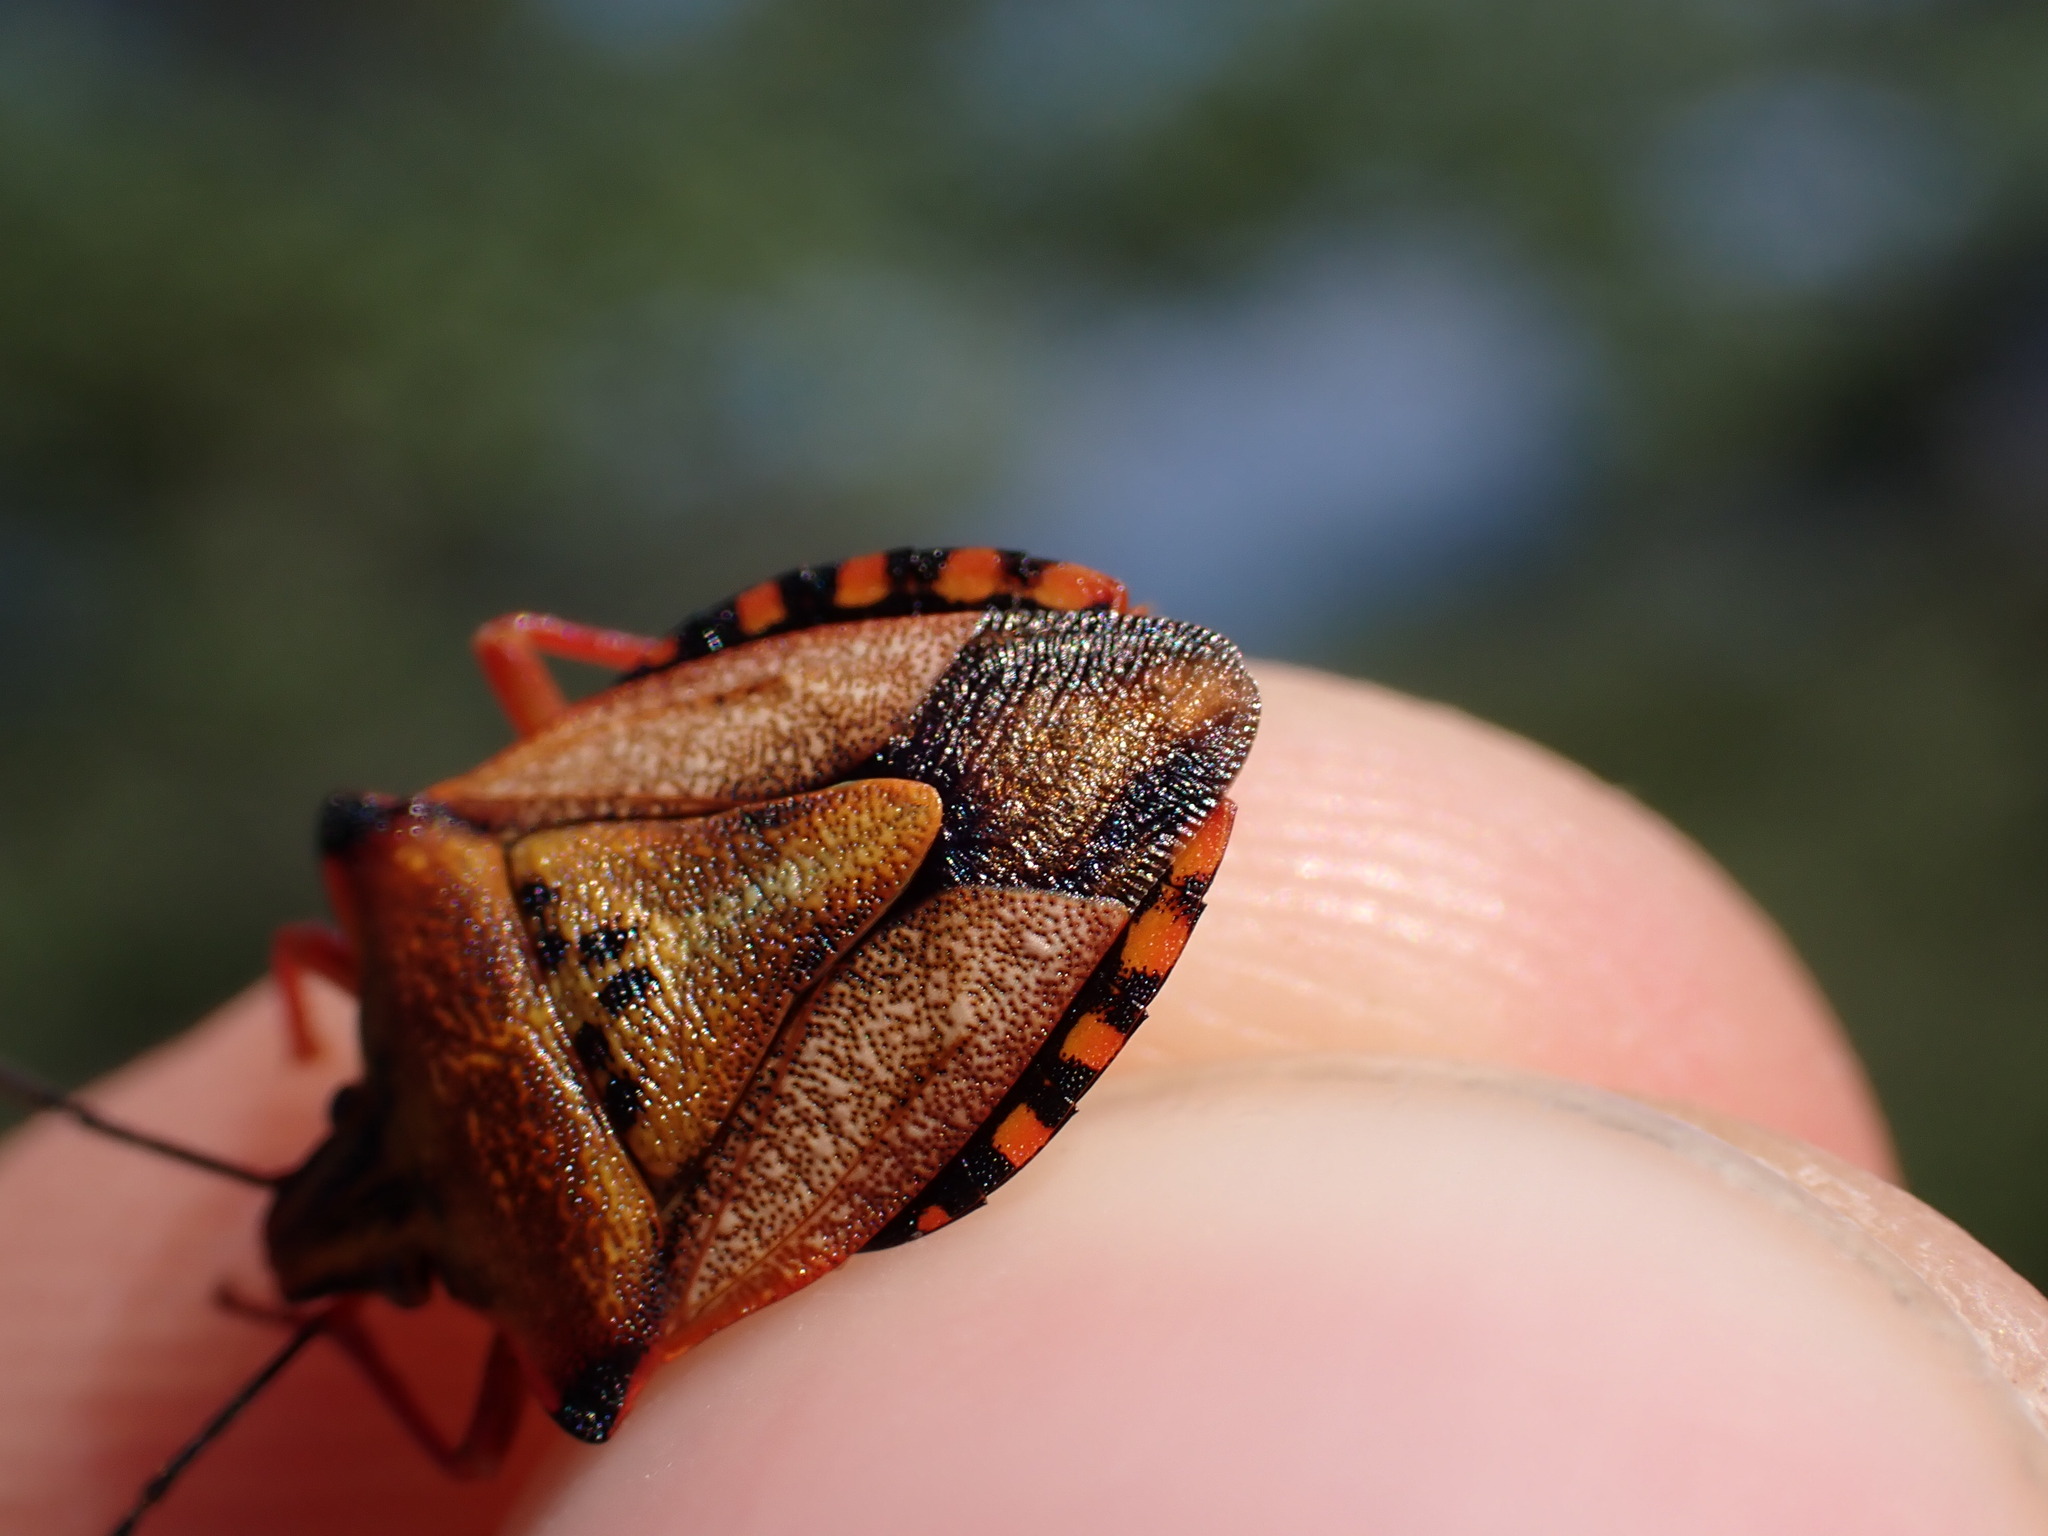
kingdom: Animalia
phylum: Arthropoda
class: Insecta
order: Hemiptera
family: Pentatomidae
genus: Carpocoris
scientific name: Carpocoris mediterraneus
